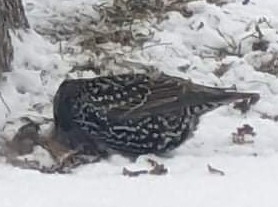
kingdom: Animalia
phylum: Chordata
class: Aves
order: Passeriformes
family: Sturnidae
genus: Sturnus
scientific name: Sturnus vulgaris
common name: Common starling
